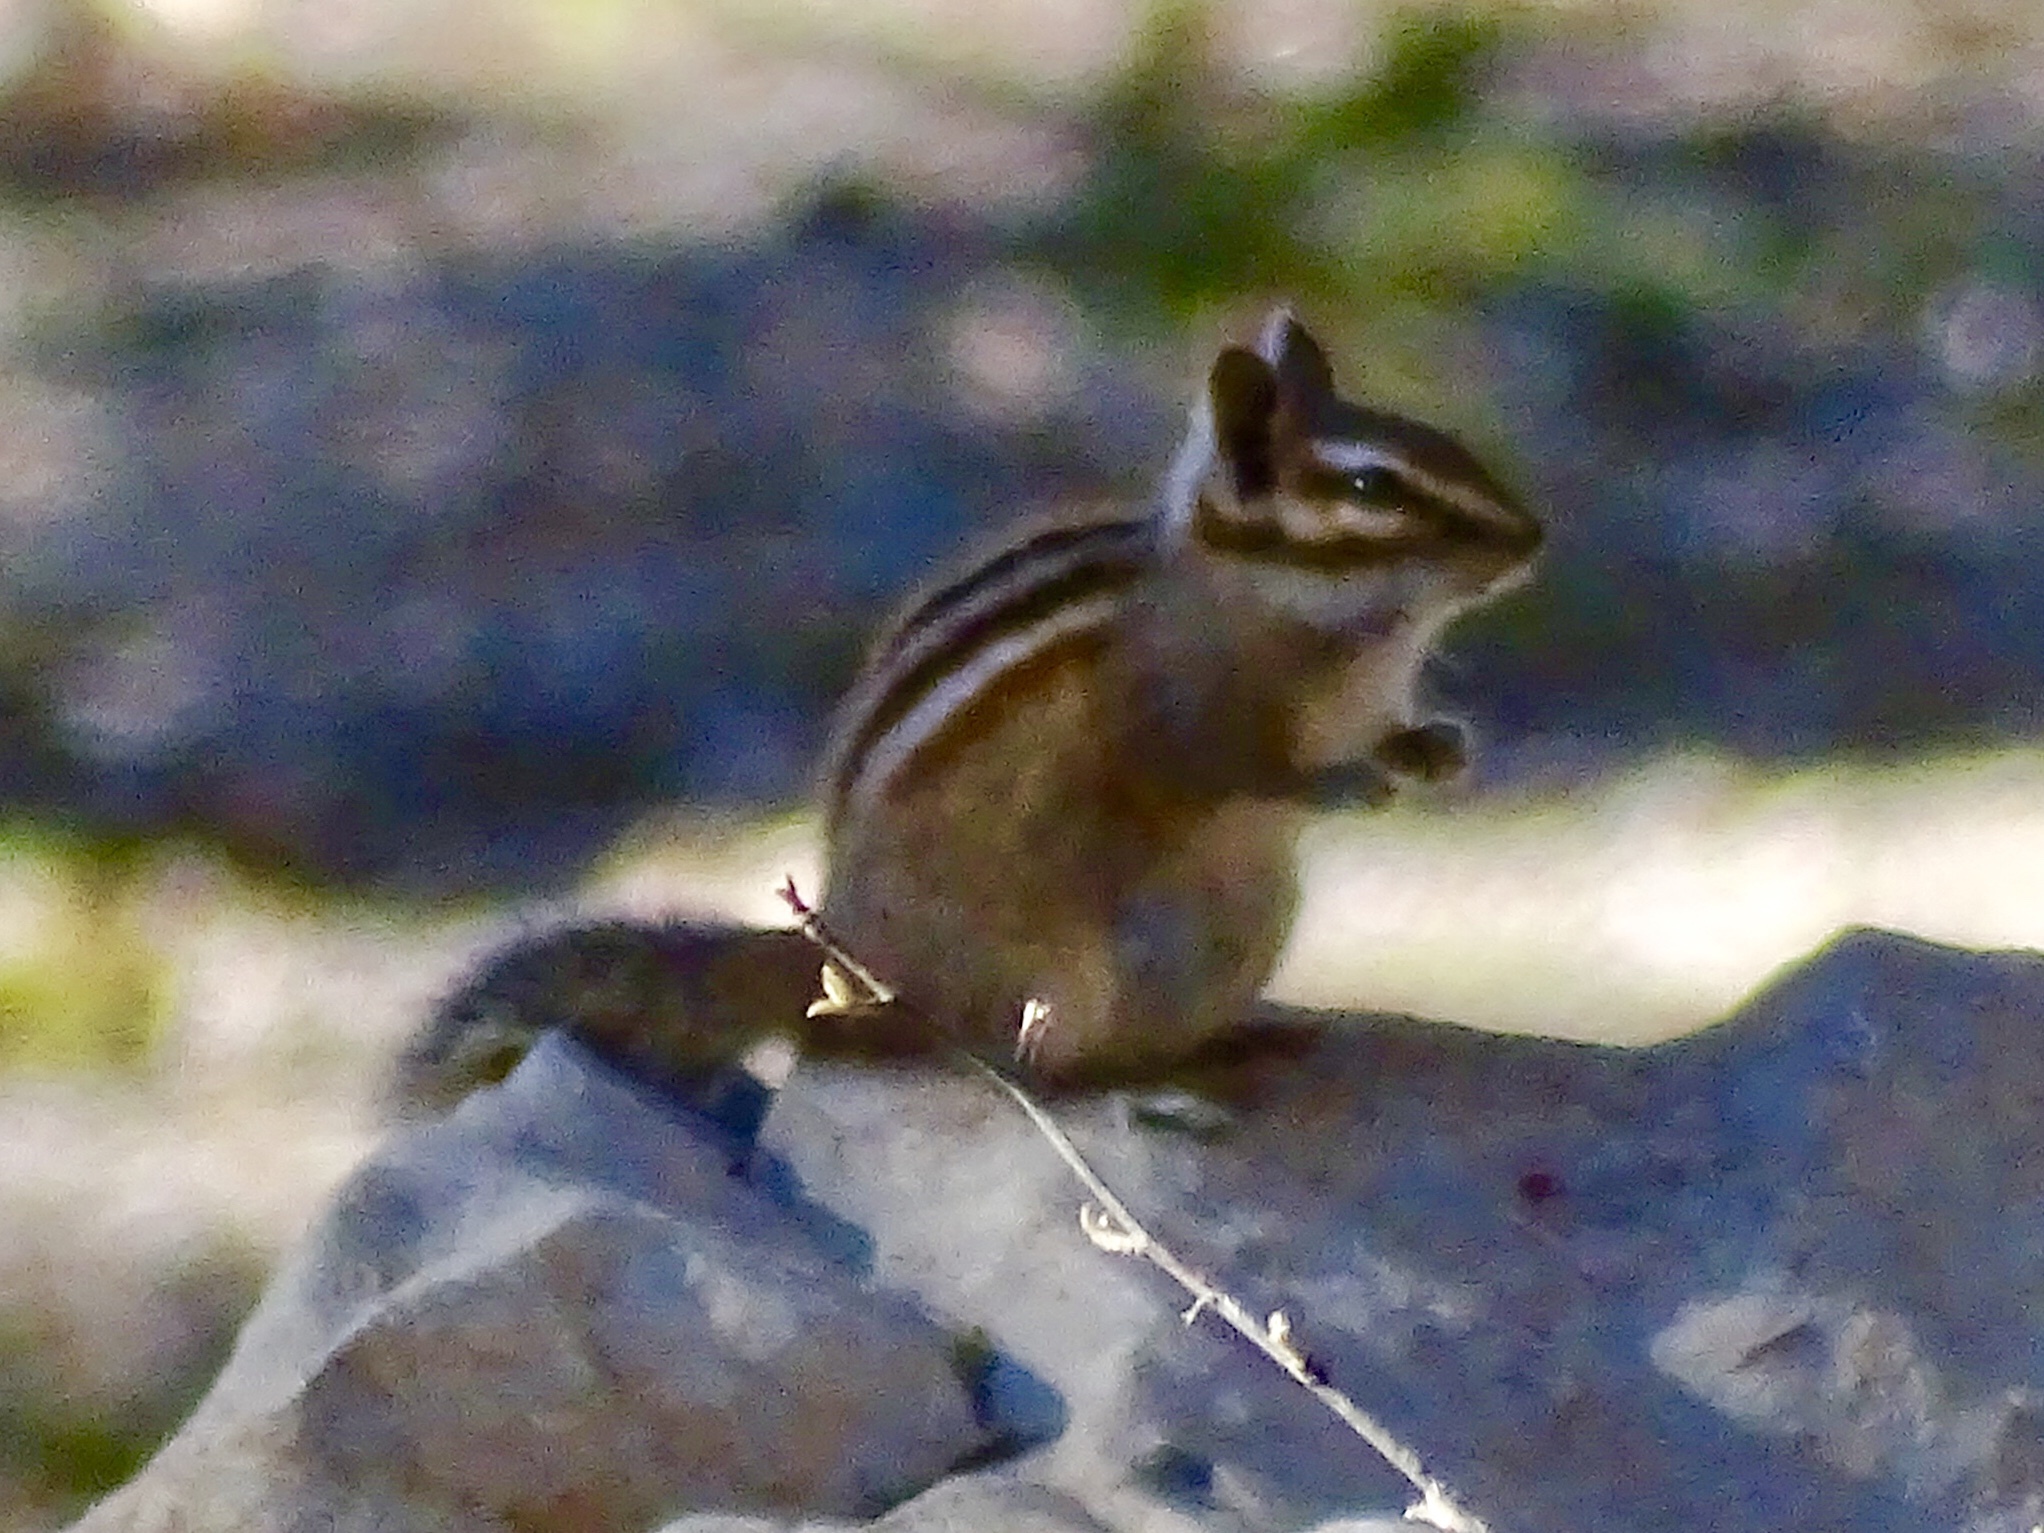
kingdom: Animalia
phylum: Chordata
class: Mammalia
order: Rodentia
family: Sciuridae
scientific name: Sciuridae
